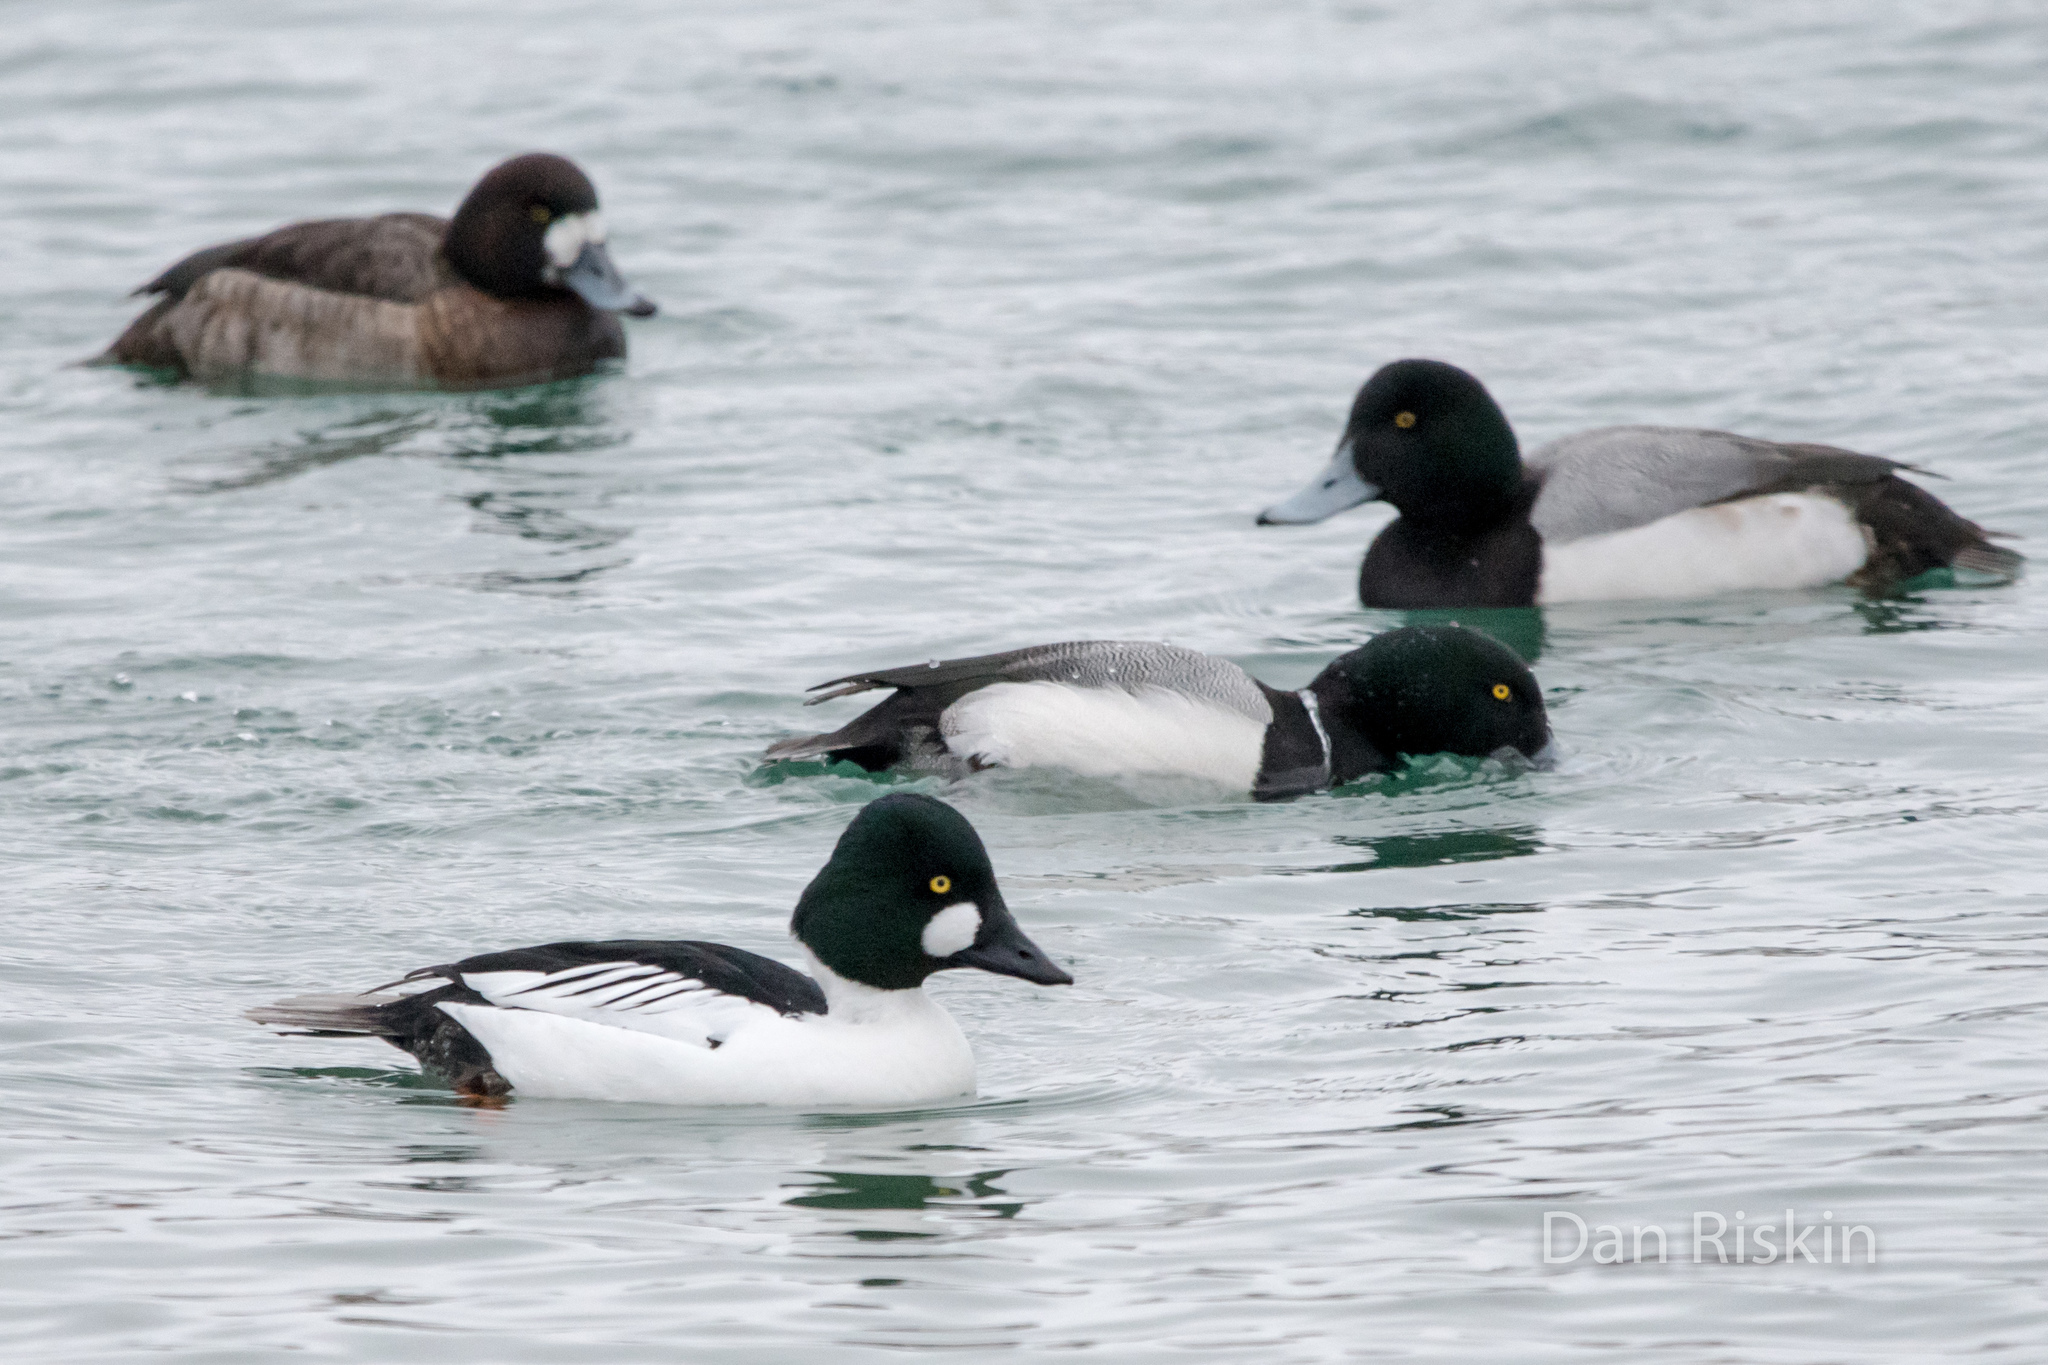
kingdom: Animalia
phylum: Chordata
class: Aves
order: Anseriformes
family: Anatidae
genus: Bucephala
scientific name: Bucephala clangula
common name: Common goldeneye
